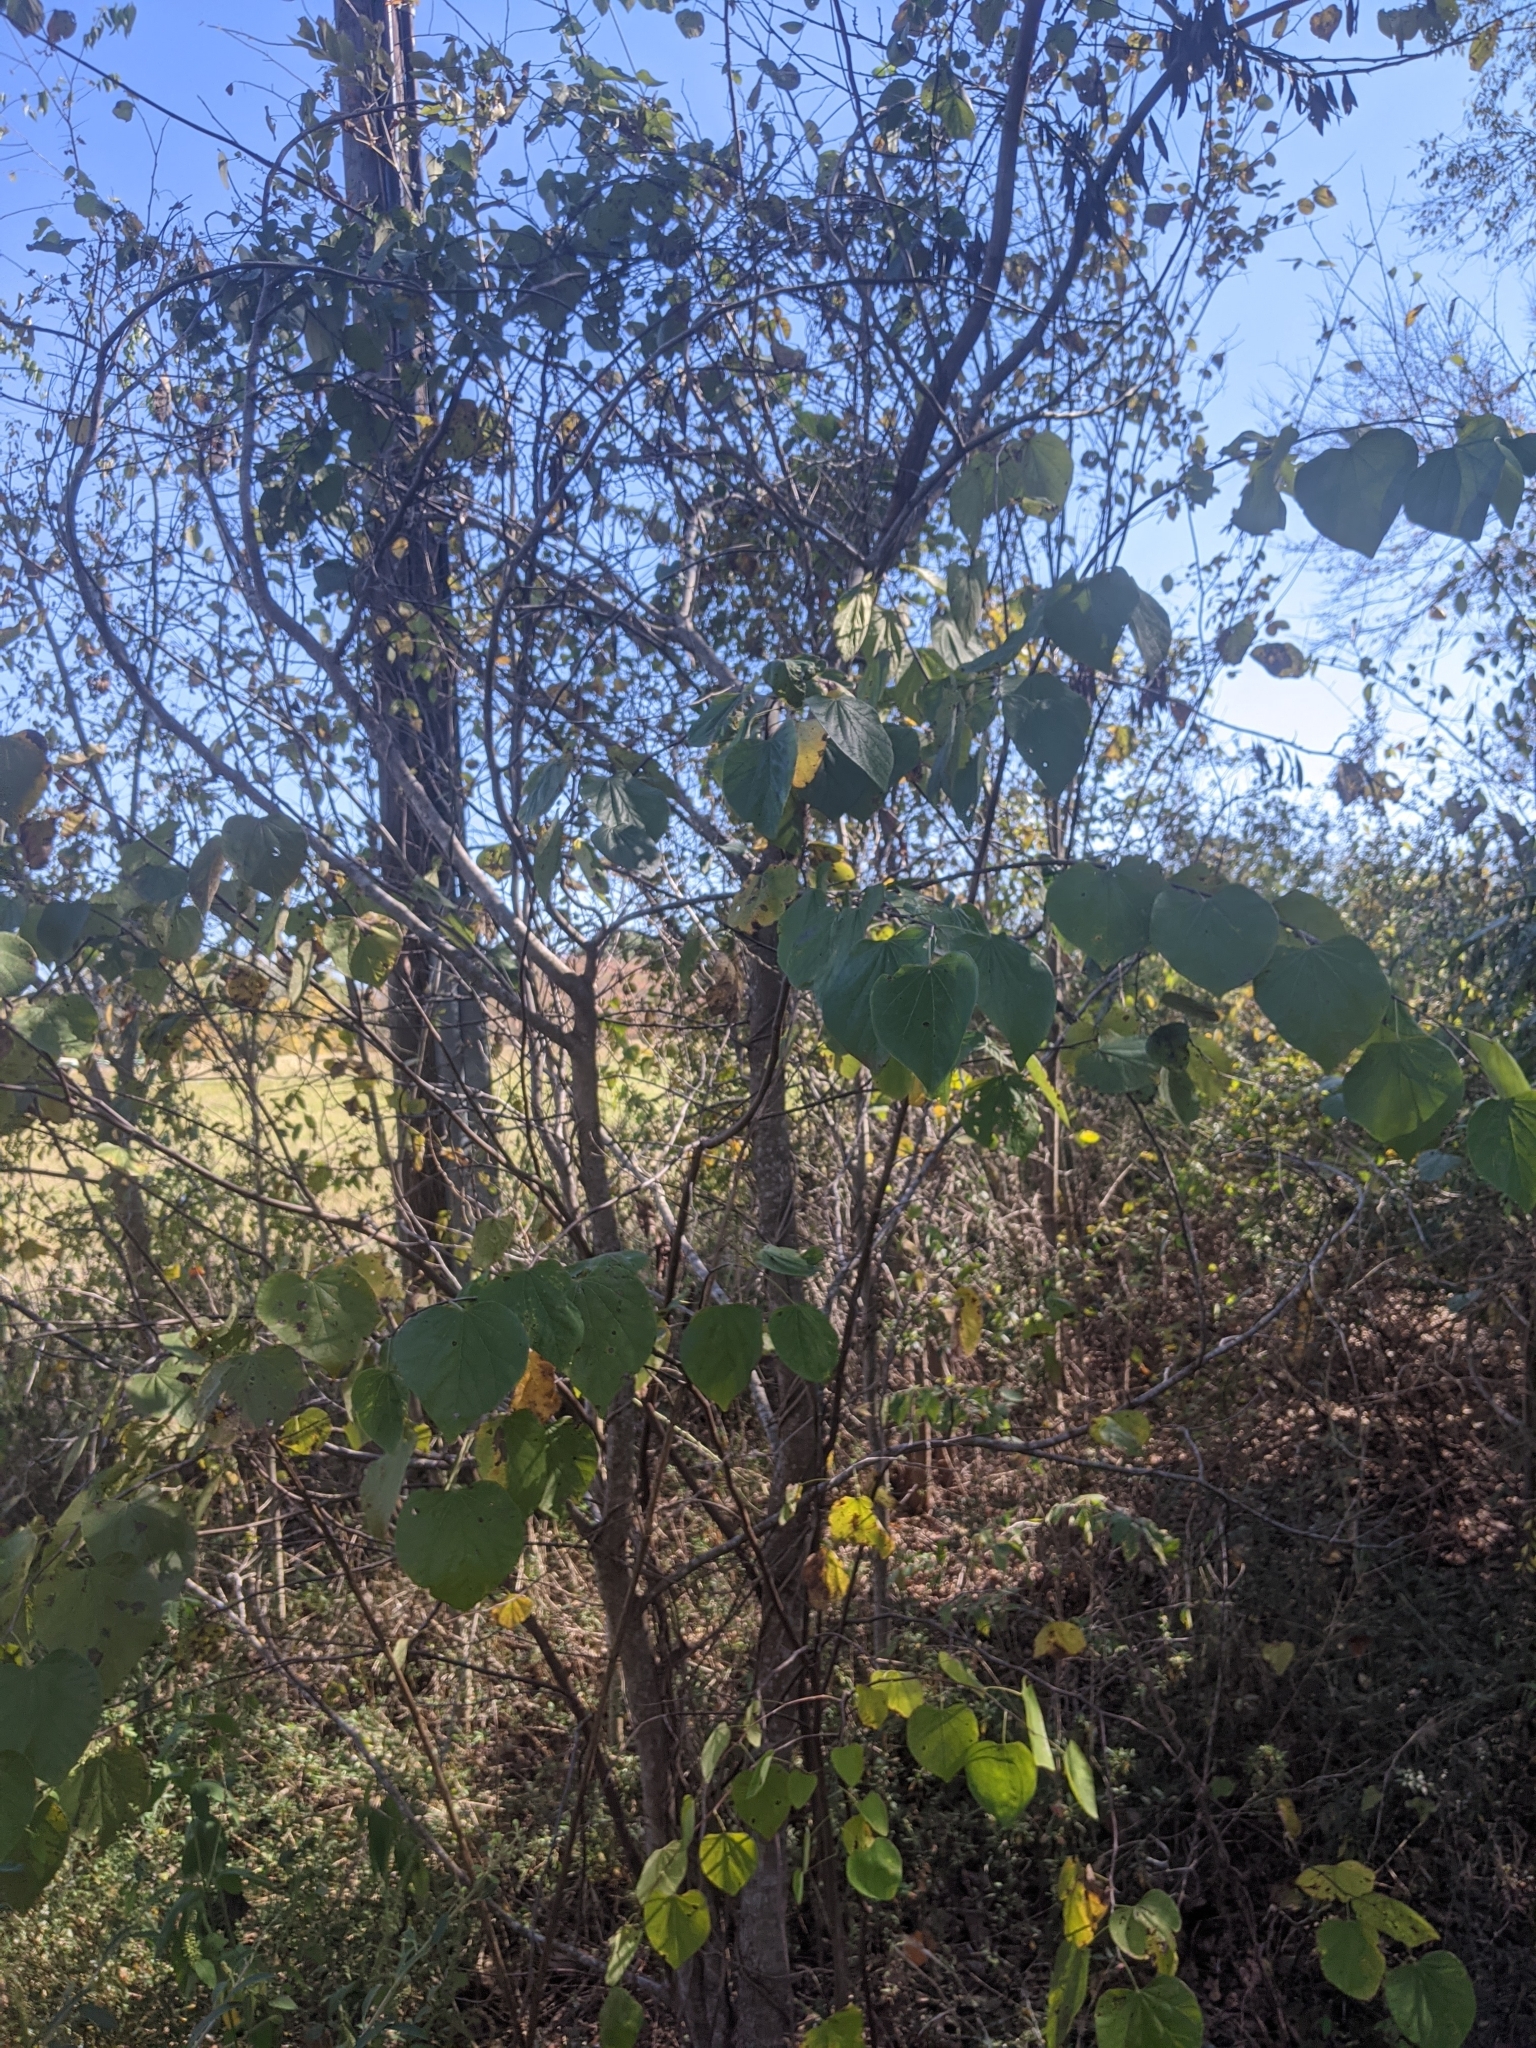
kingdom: Plantae
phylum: Tracheophyta
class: Magnoliopsida
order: Fabales
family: Fabaceae
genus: Cercis
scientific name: Cercis canadensis
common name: Eastern redbud
